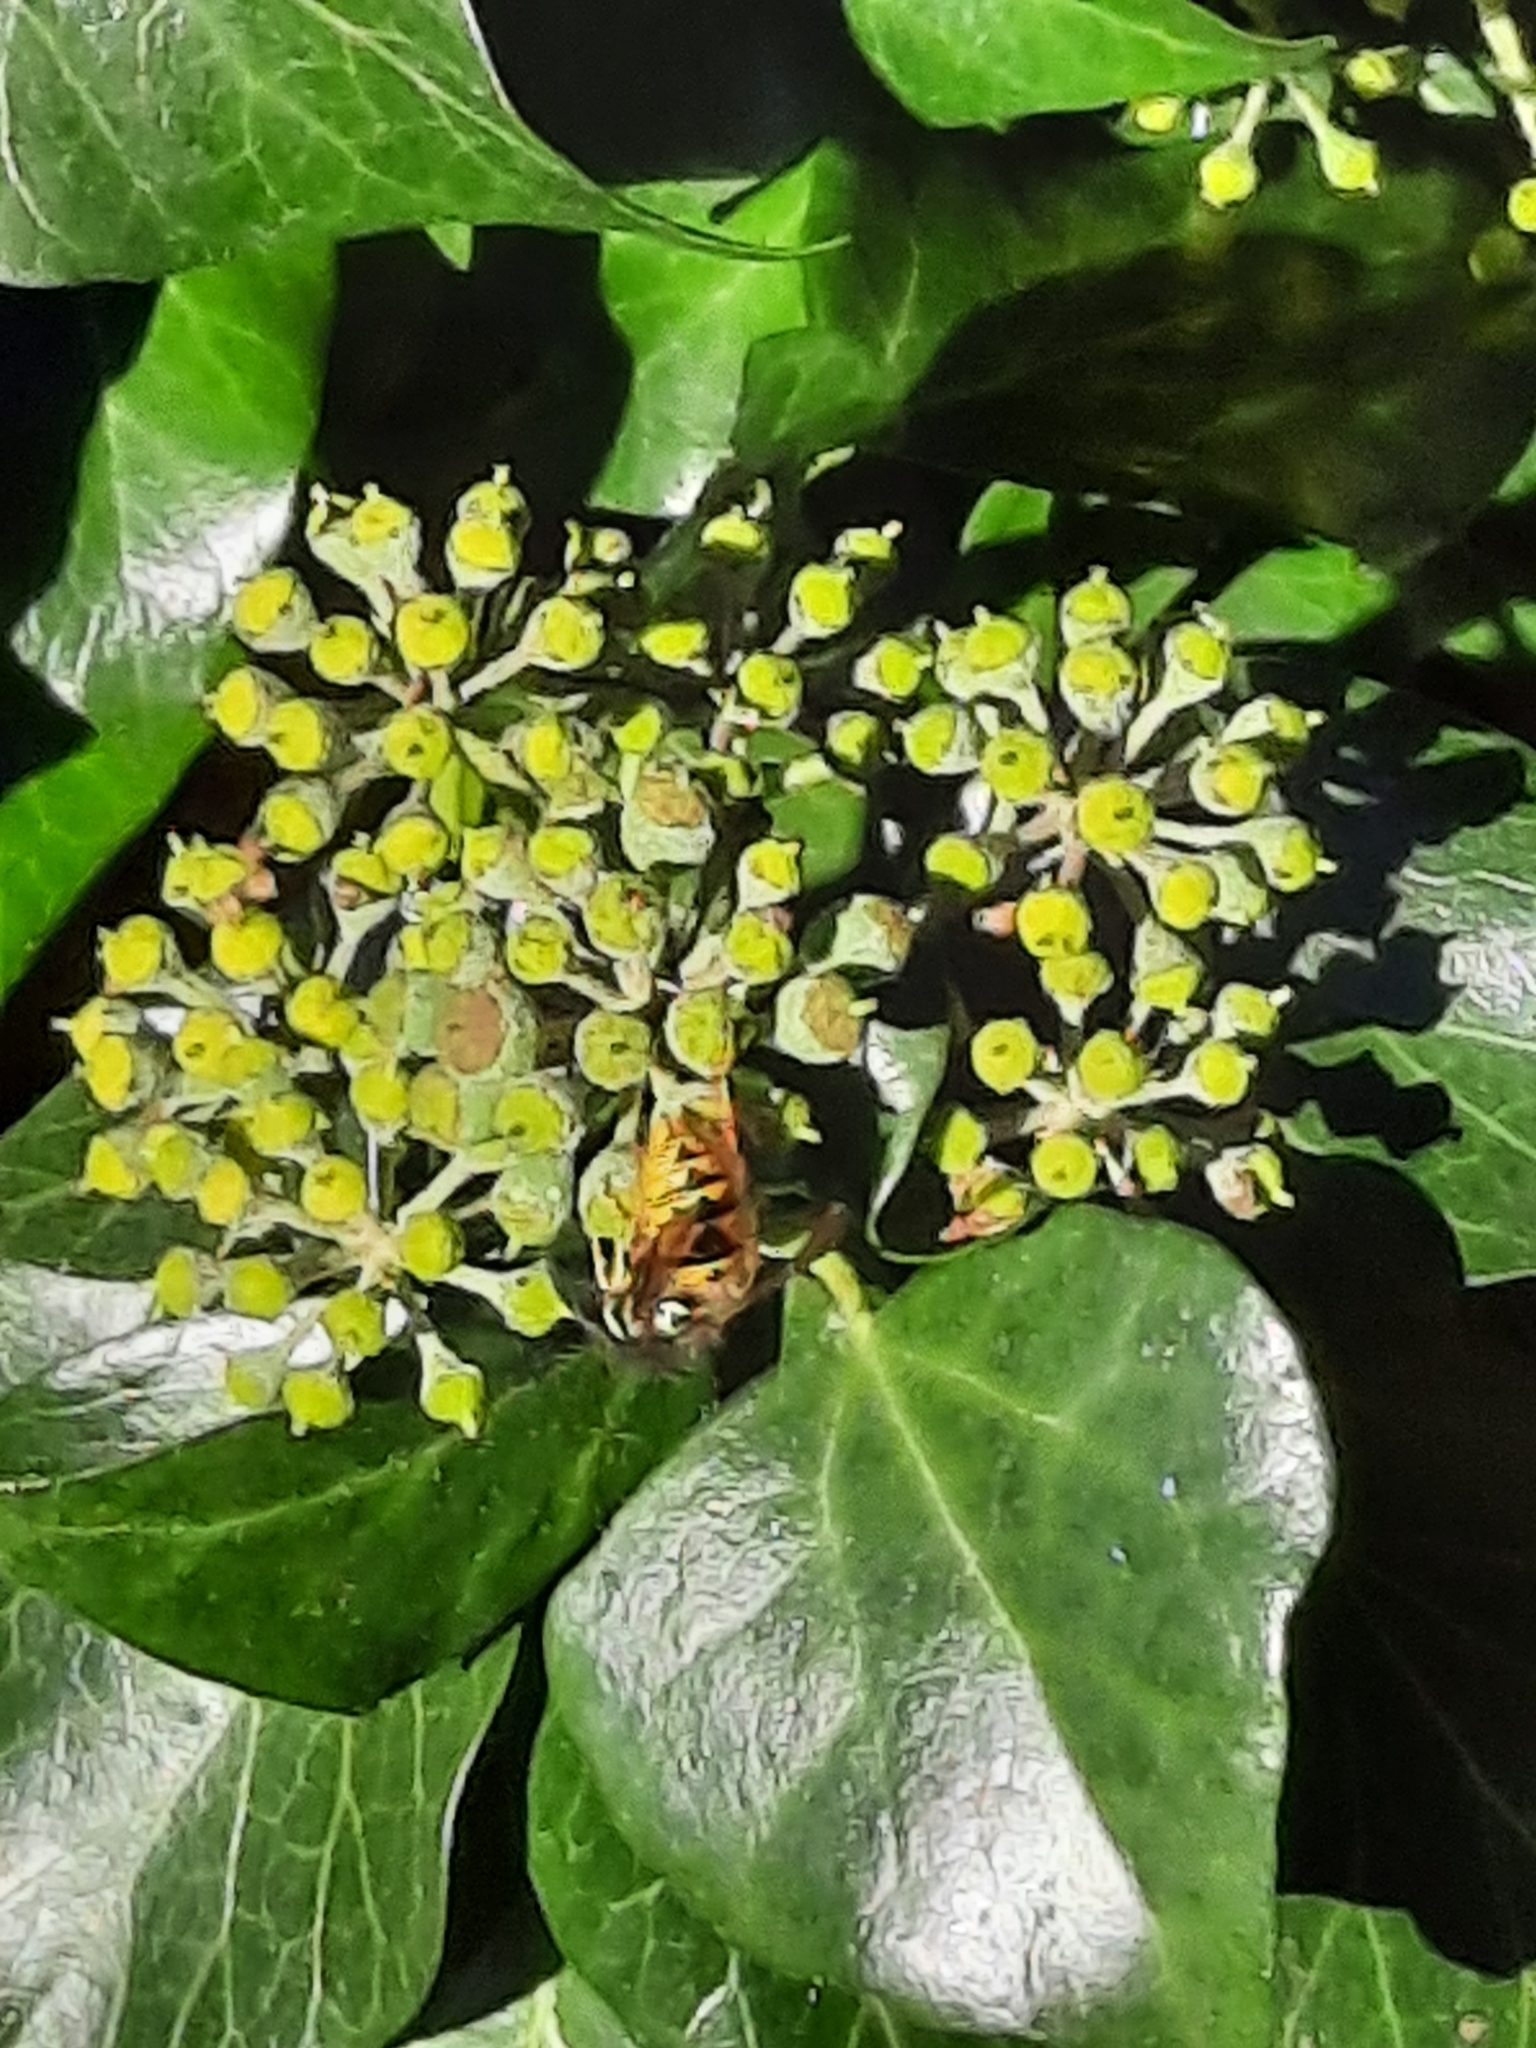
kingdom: Animalia
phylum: Arthropoda
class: Insecta
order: Hymenoptera
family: Vespidae
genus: Vespula
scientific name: Vespula vulgaris
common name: Common wasp
